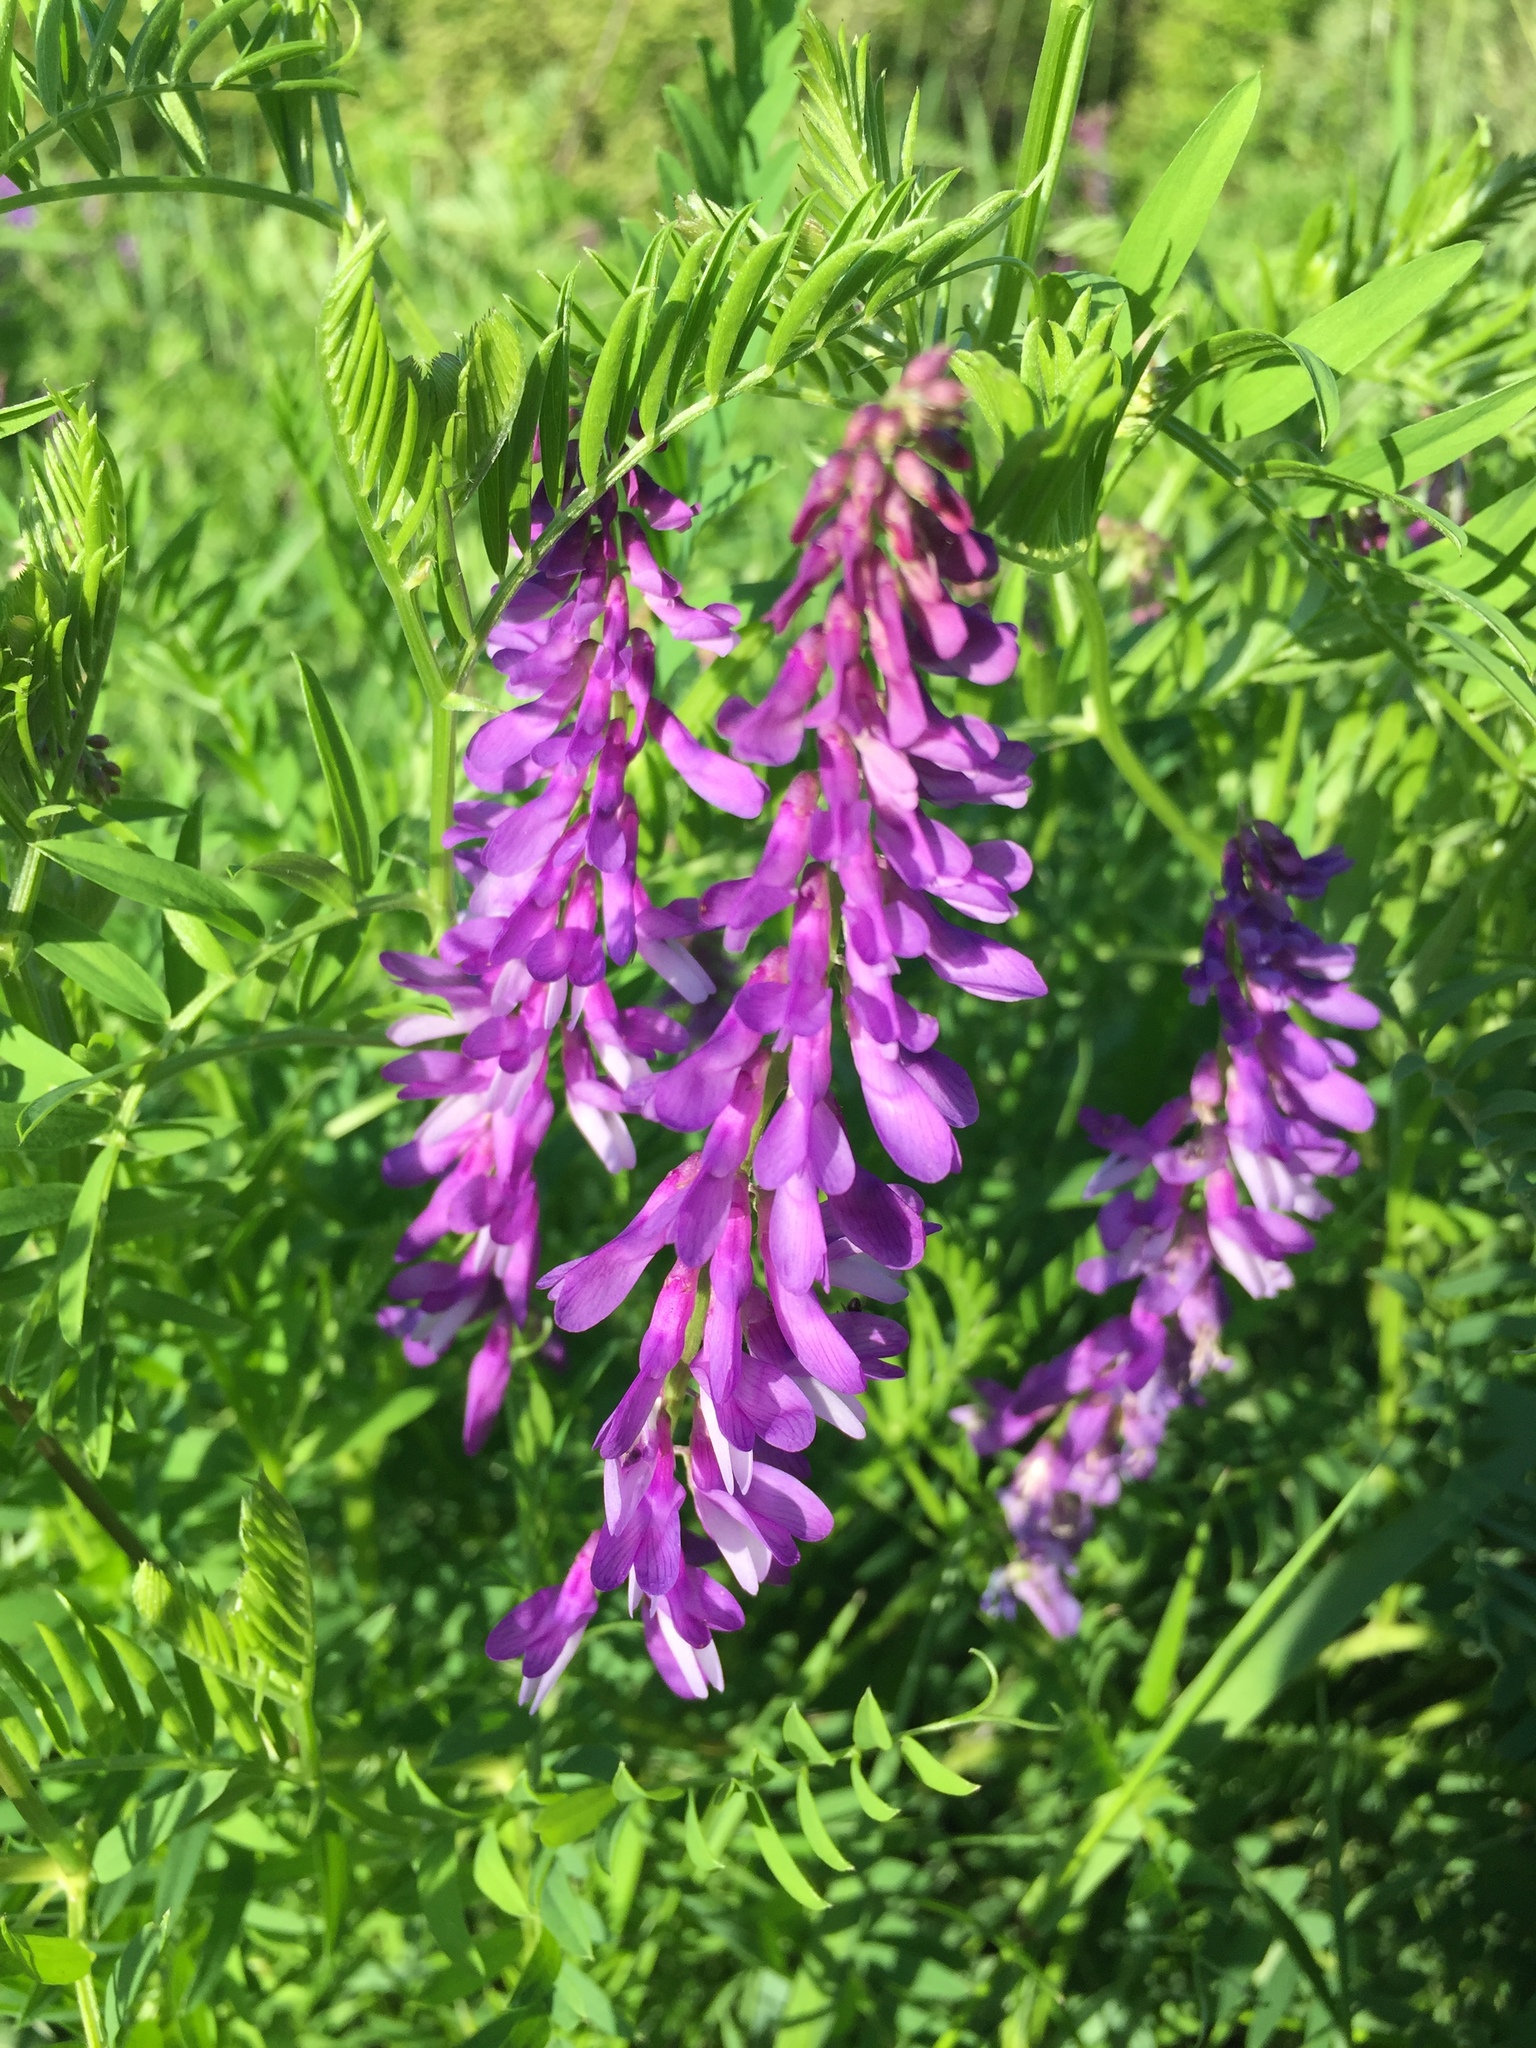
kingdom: Plantae
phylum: Tracheophyta
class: Magnoliopsida
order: Fabales
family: Fabaceae
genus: Vicia
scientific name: Vicia cracca
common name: Bird vetch
